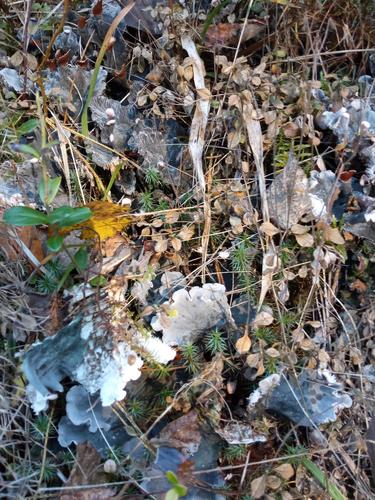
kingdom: Fungi
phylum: Ascomycota
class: Lecanoromycetes
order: Peltigerales
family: Peltigeraceae
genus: Peltigera
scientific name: Peltigera canina
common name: Dog pelt lichen
